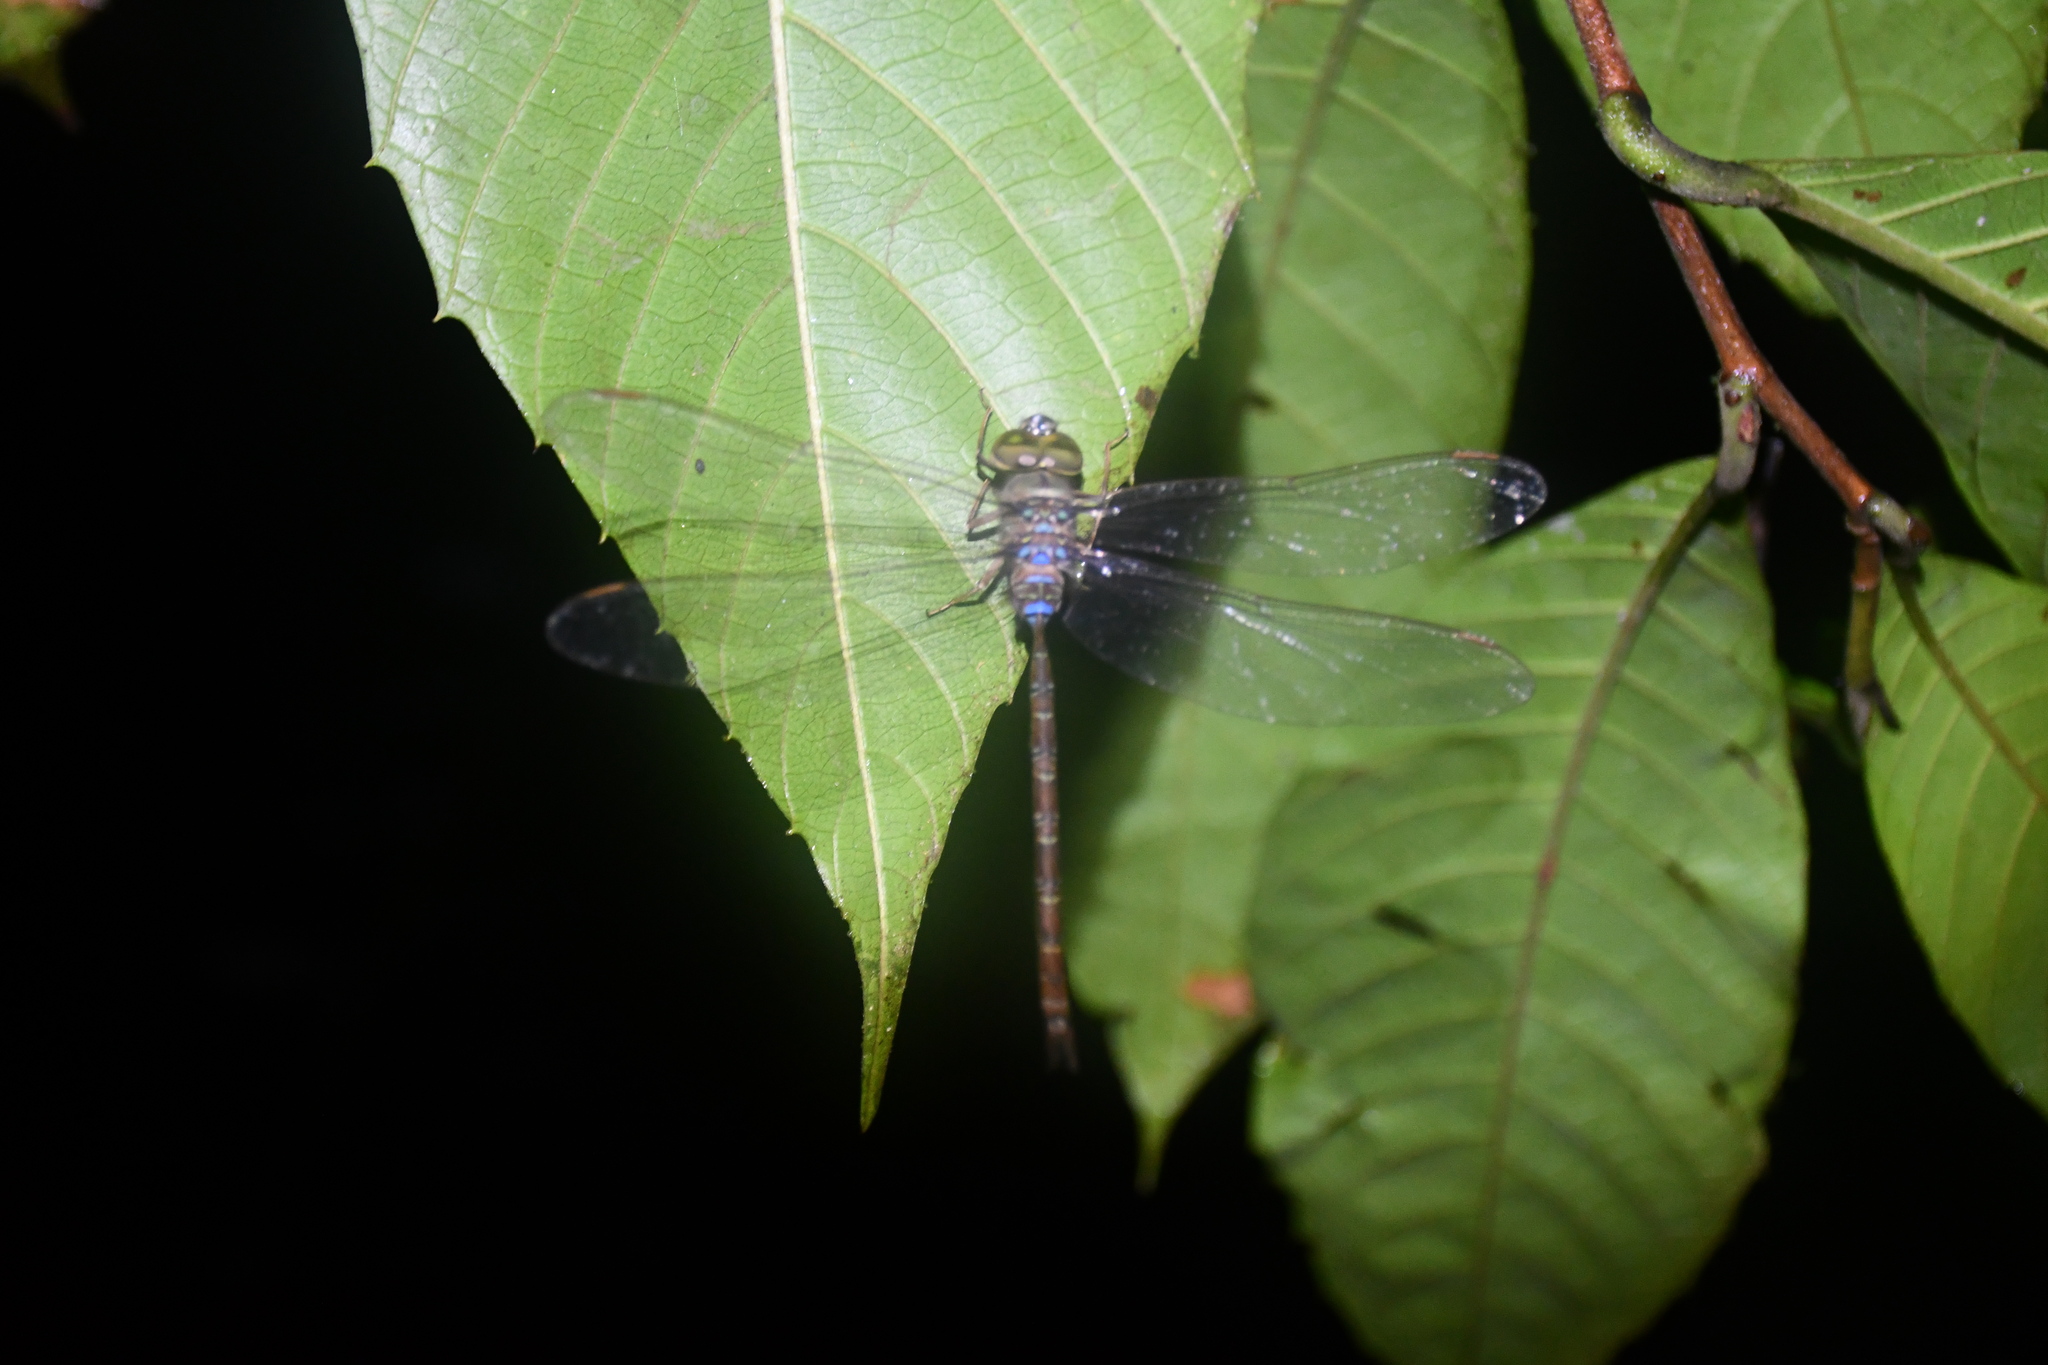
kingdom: Animalia
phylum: Arthropoda
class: Insecta
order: Odonata
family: Aeshnidae
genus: Gynacantha
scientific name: Gynacantha bifida
